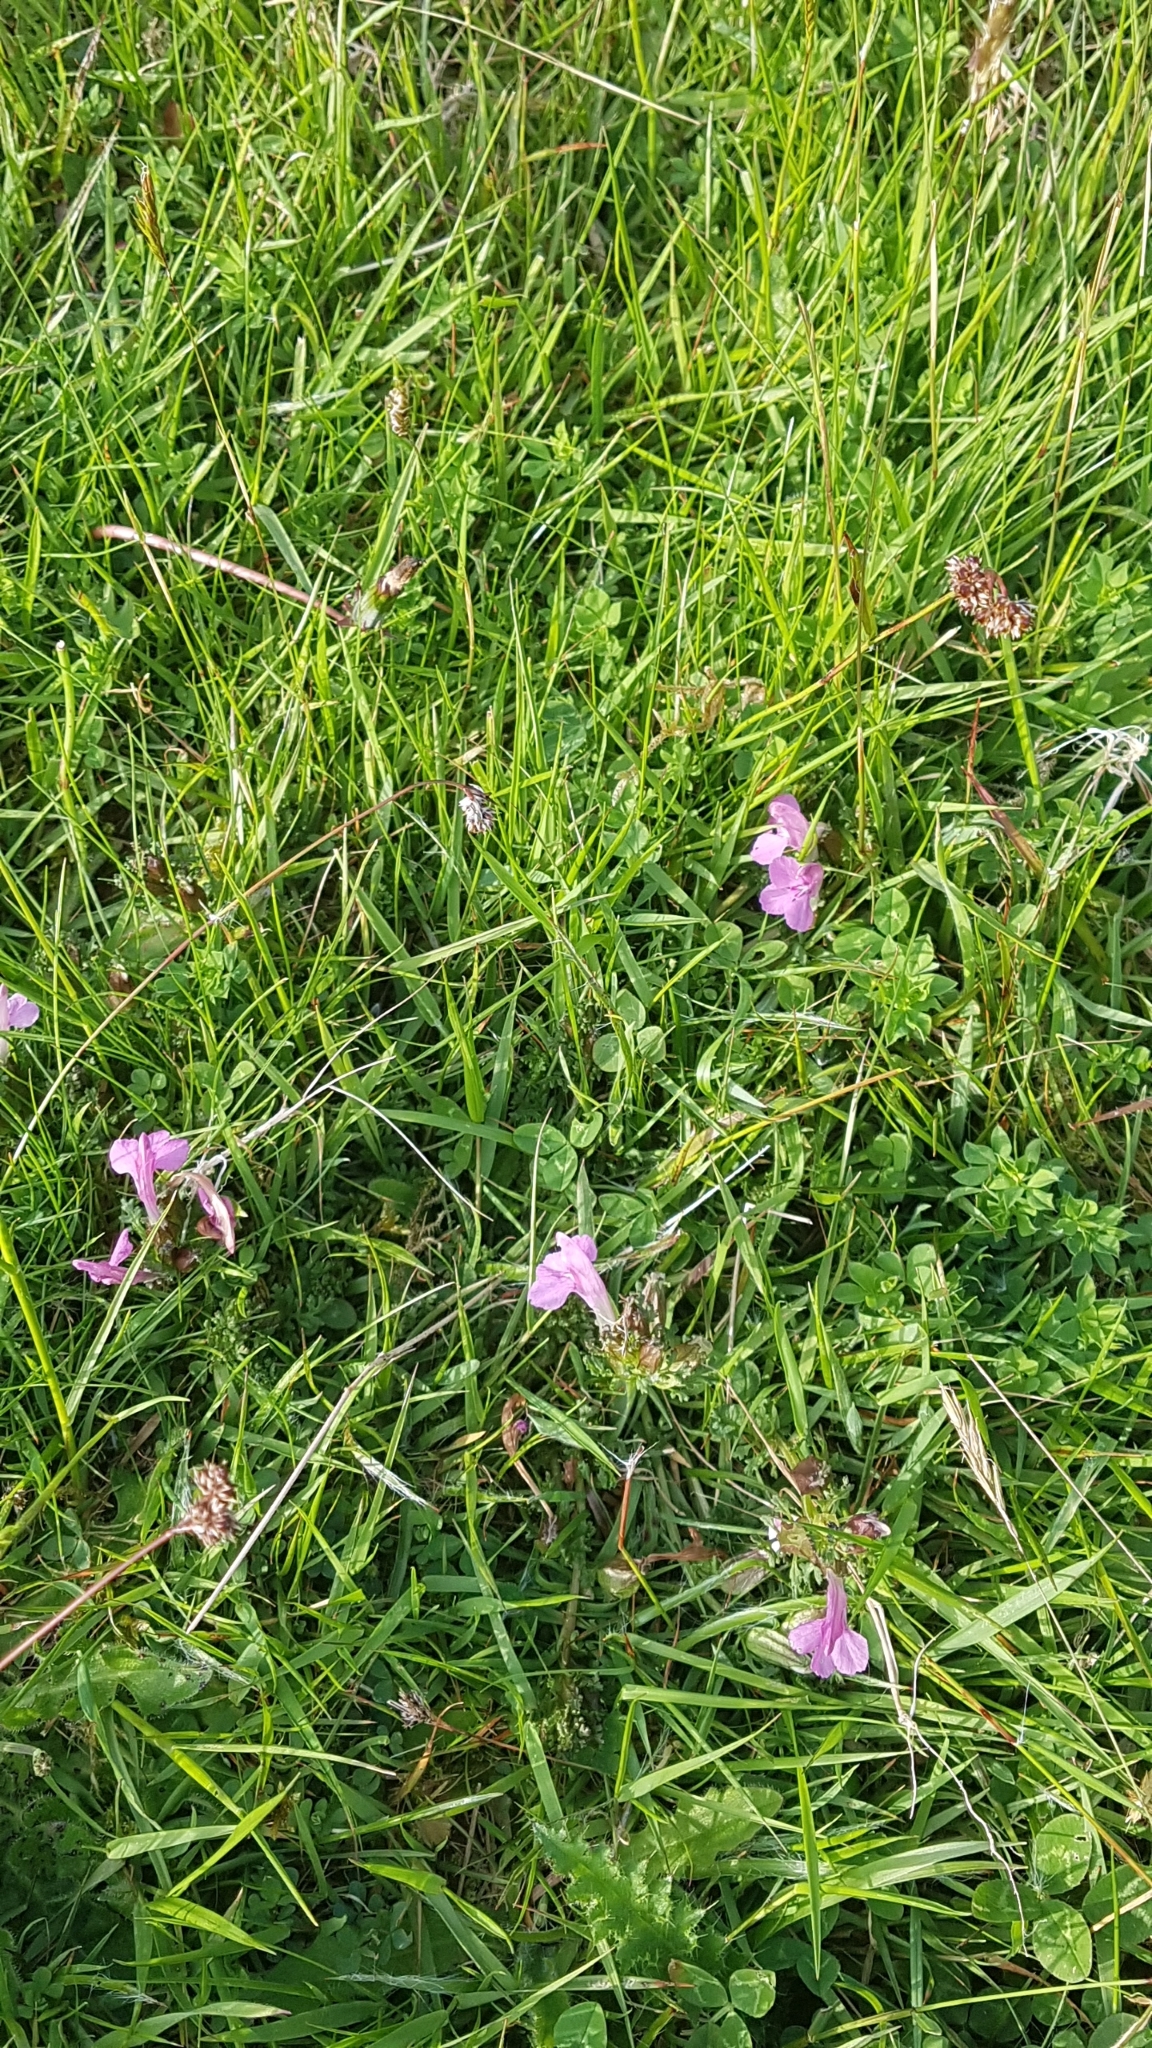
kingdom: Plantae
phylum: Tracheophyta
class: Magnoliopsida
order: Lamiales
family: Orobanchaceae
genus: Pedicularis
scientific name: Pedicularis sylvatica
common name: Lousewort
